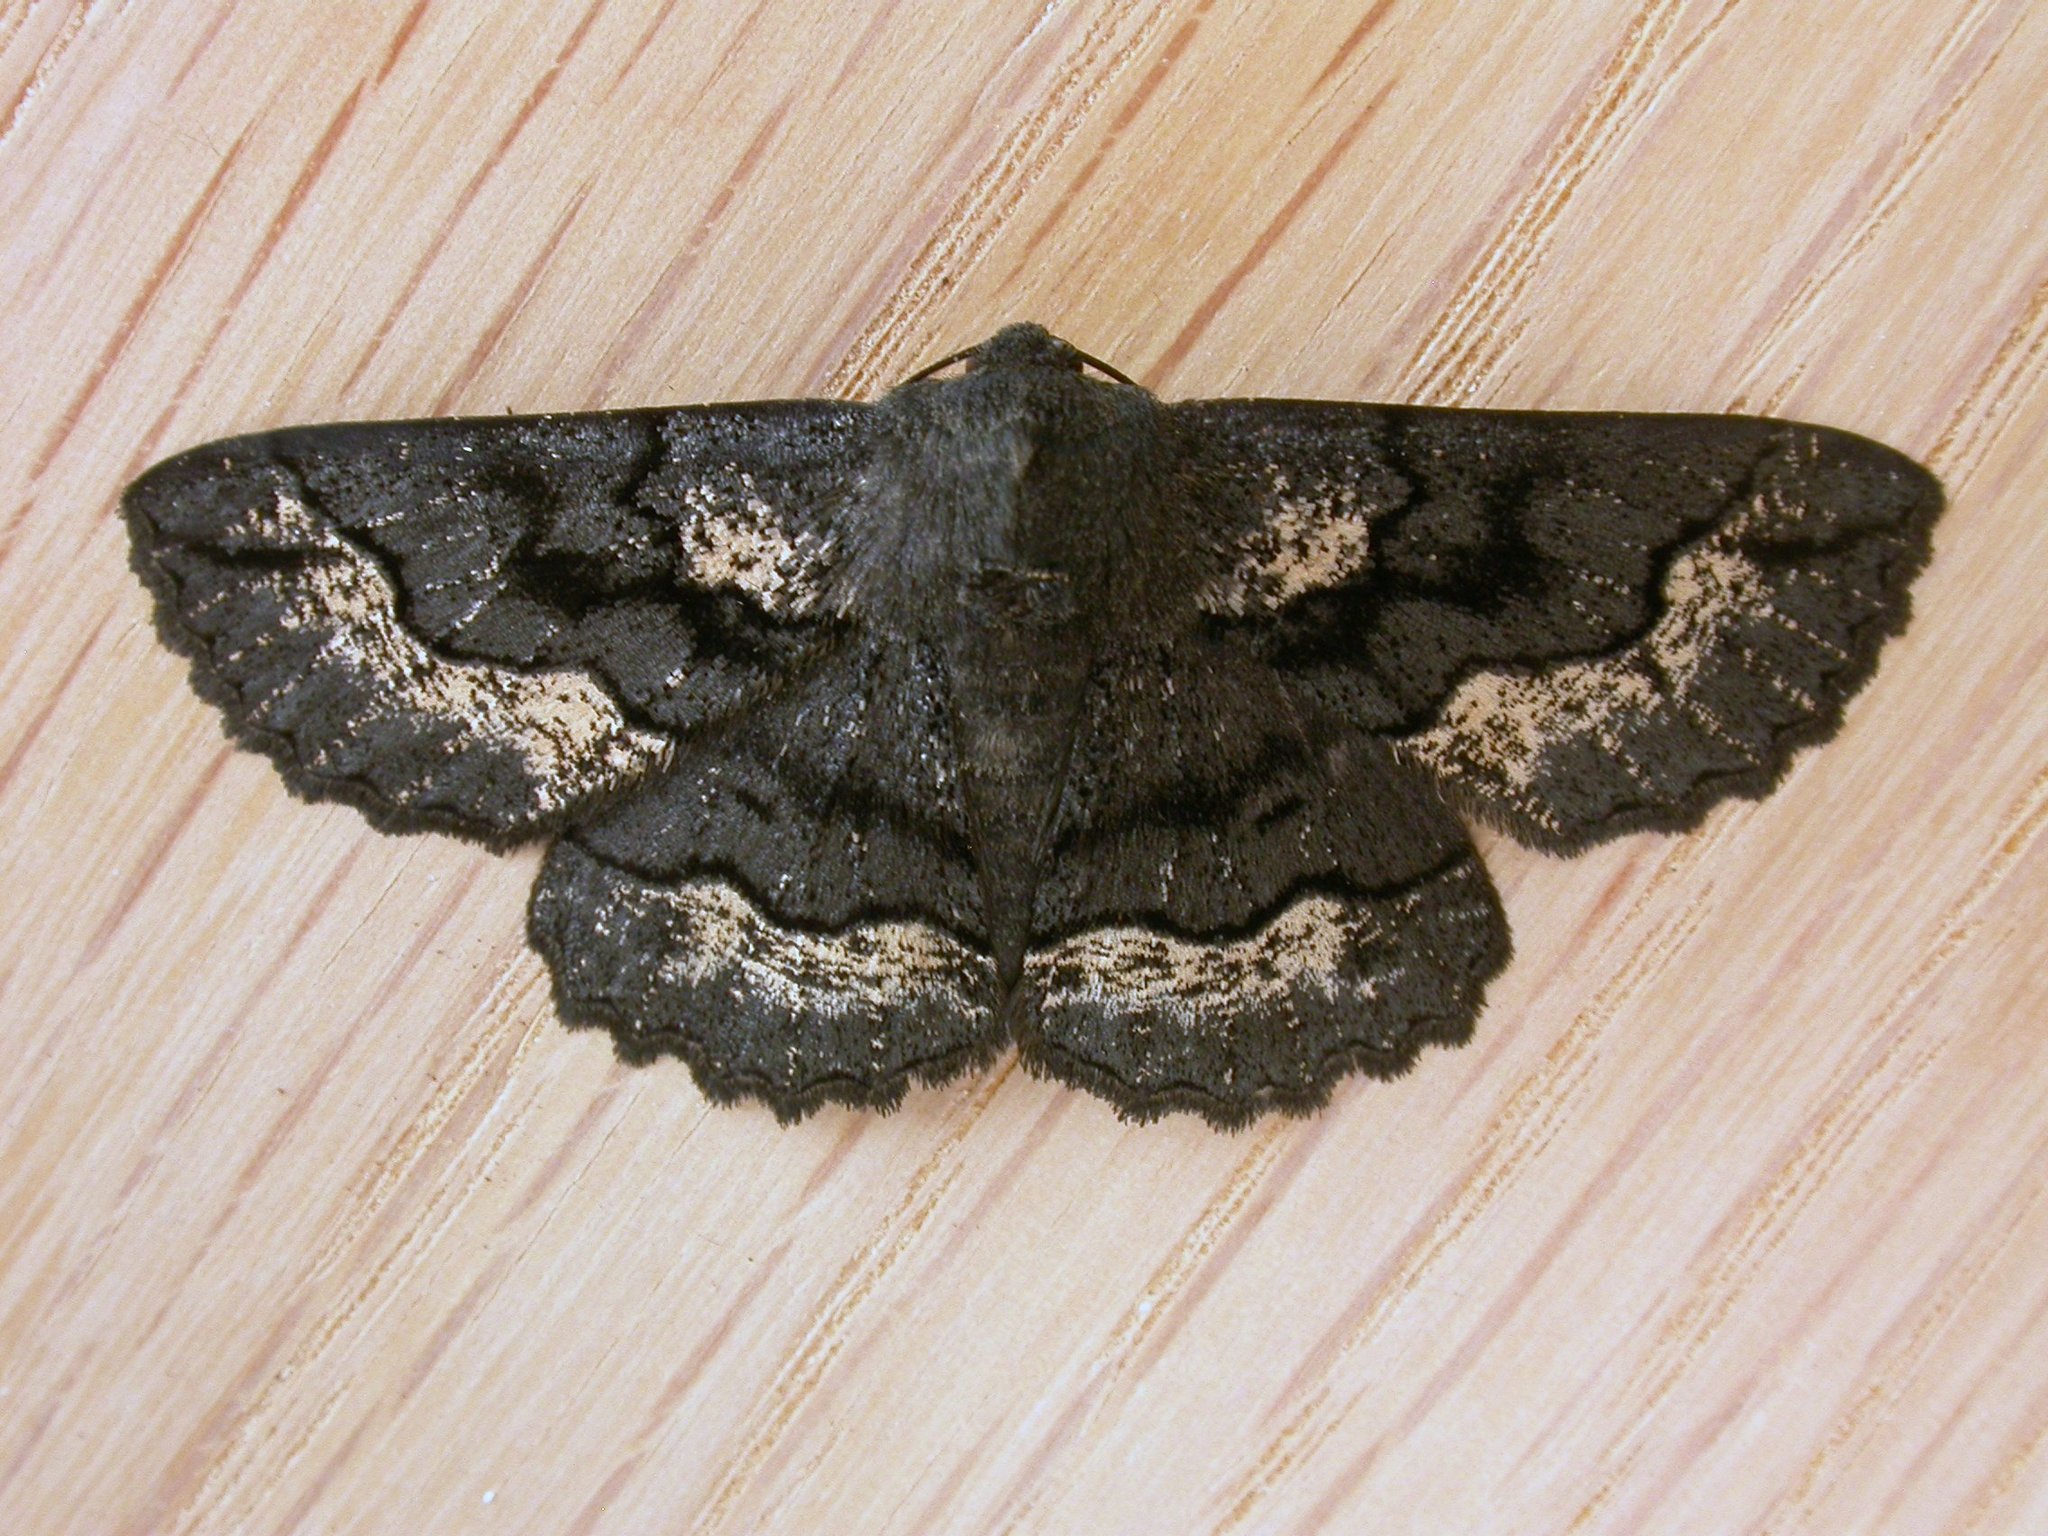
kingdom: Animalia
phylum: Arthropoda
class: Insecta
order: Lepidoptera
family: Geometridae
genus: Melanodes
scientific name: Melanodes anthracitaria
